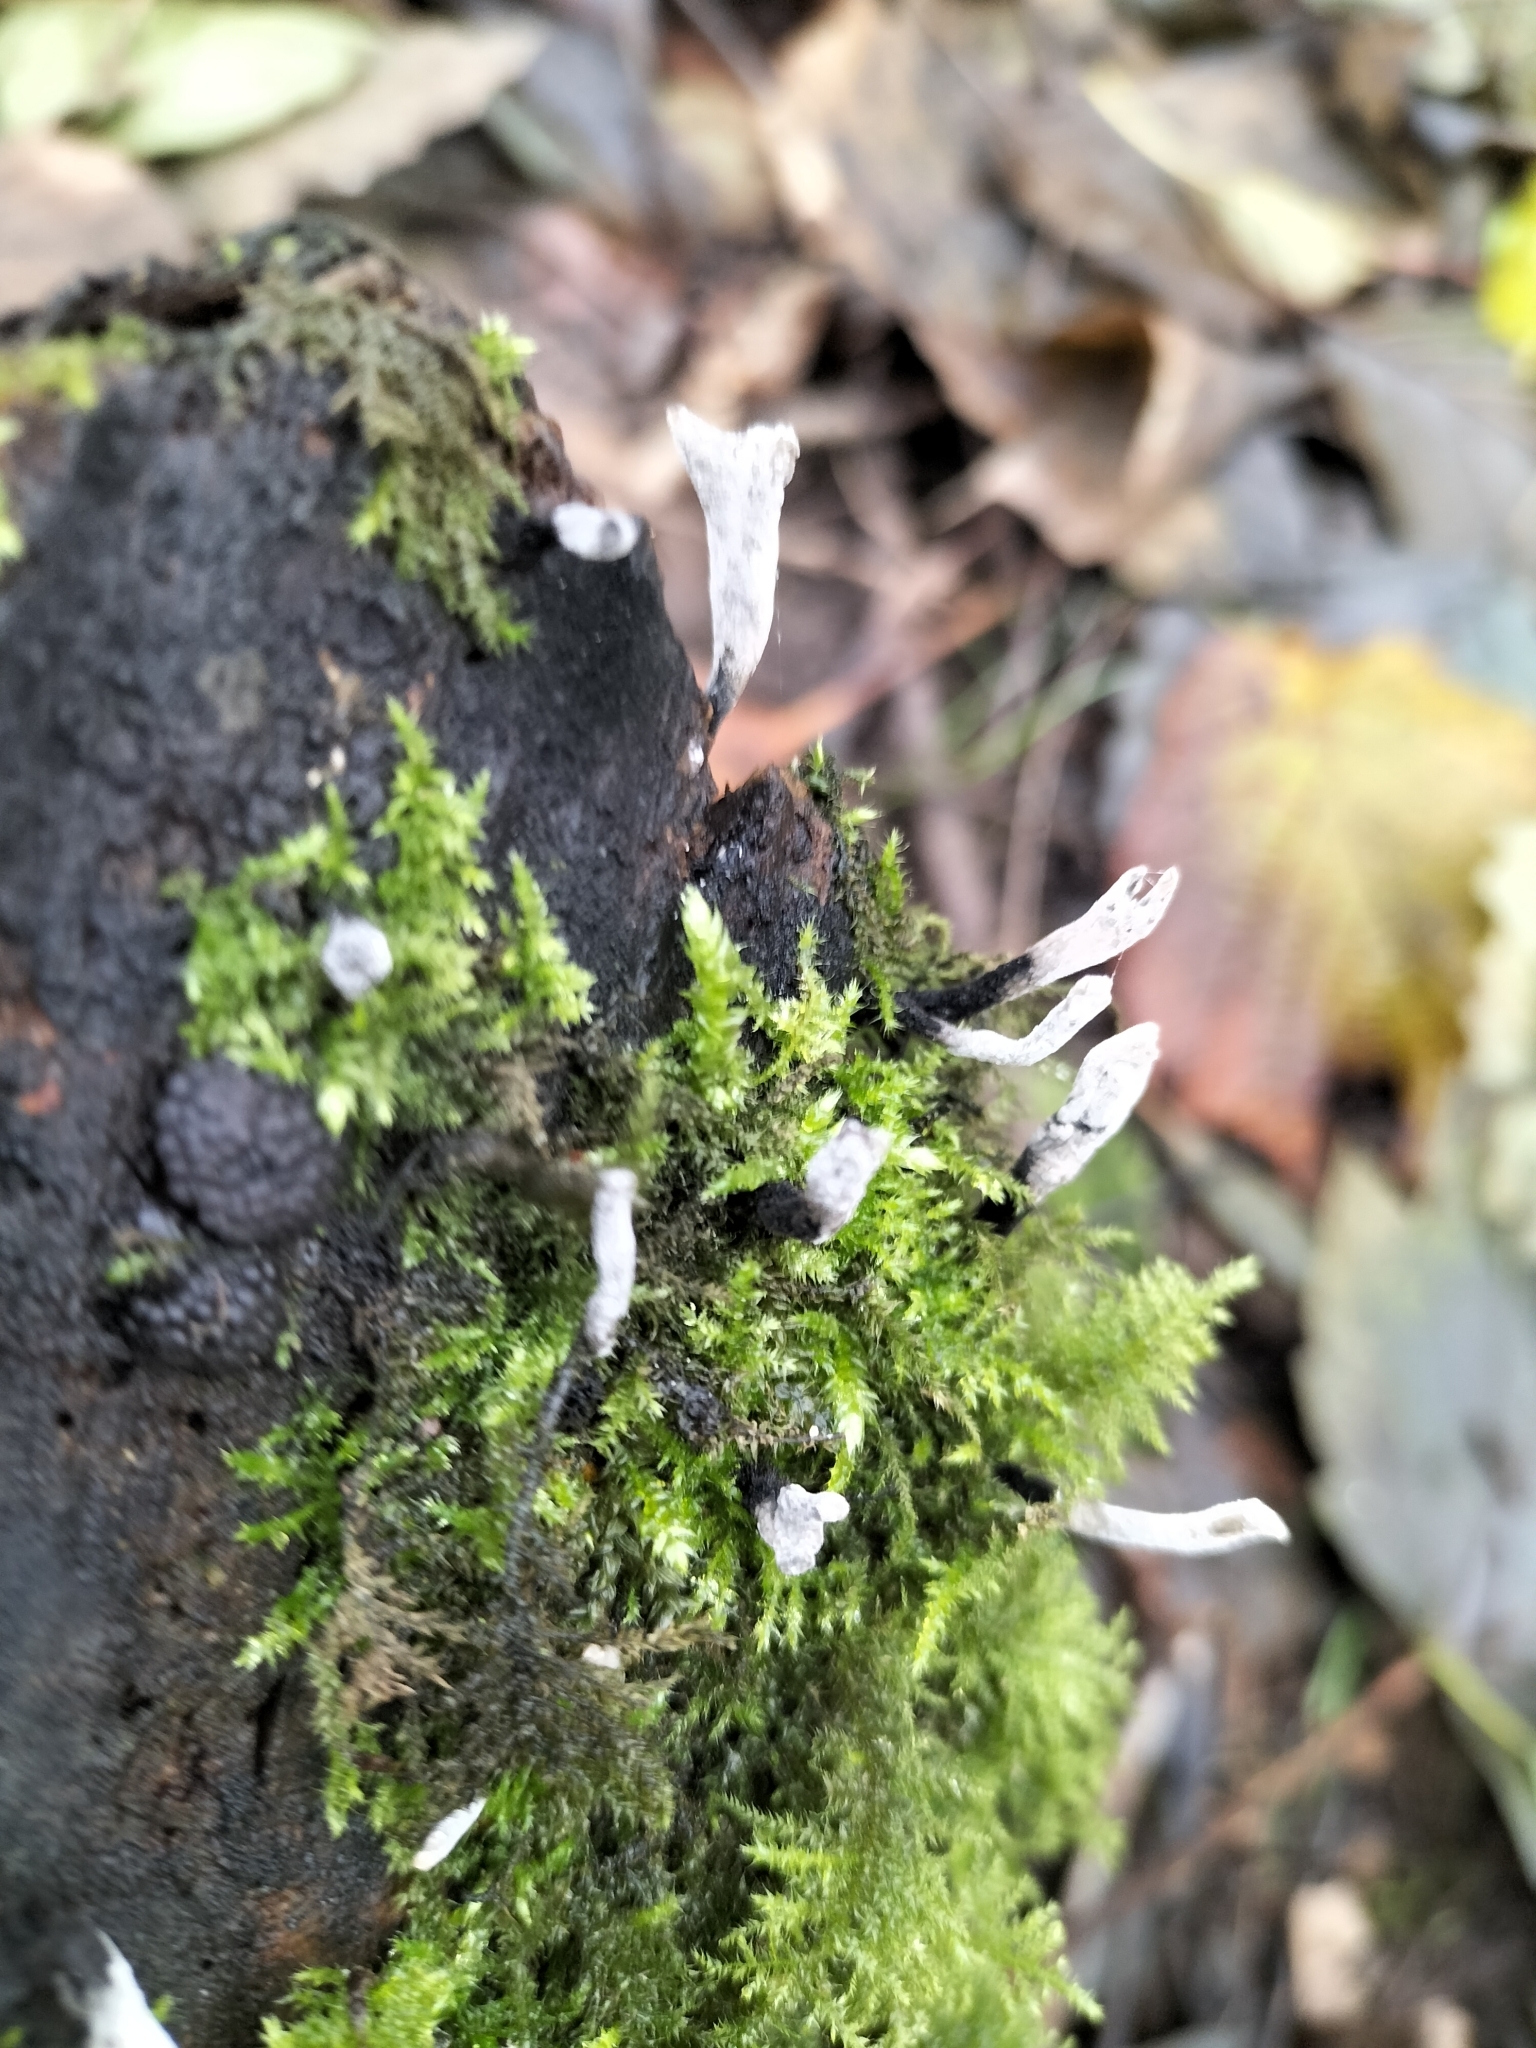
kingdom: Fungi
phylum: Ascomycota
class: Sordariomycetes
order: Xylariales
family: Xylariaceae
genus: Xylaria
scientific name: Xylaria hypoxylon
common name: Candle-snuff fungus
